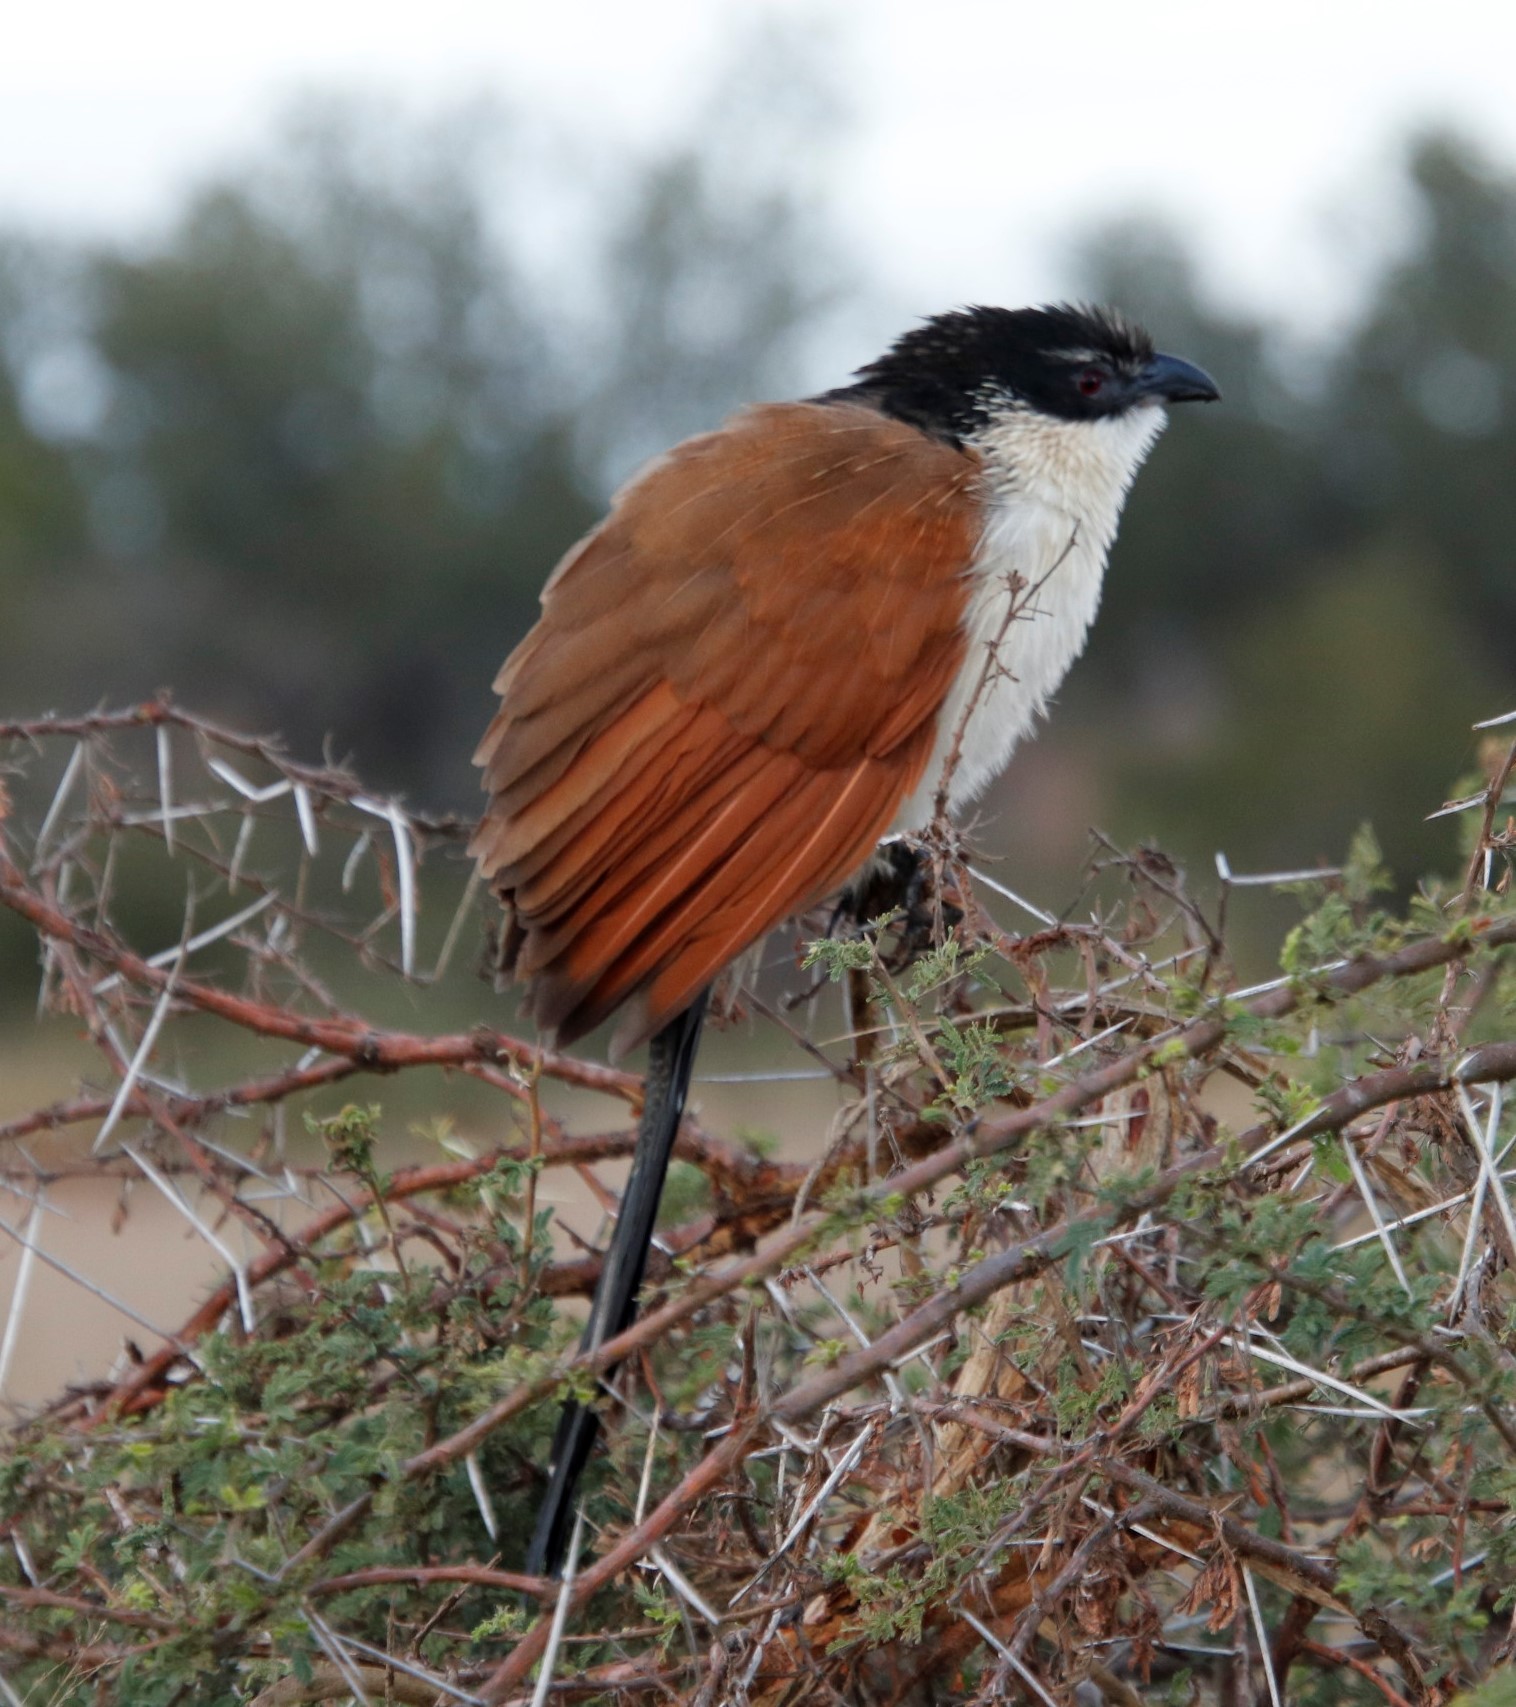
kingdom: Animalia
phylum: Chordata
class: Aves
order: Cuculiformes
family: Cuculidae
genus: Centropus
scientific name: Centropus superciliosus
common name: White-browed coucal
